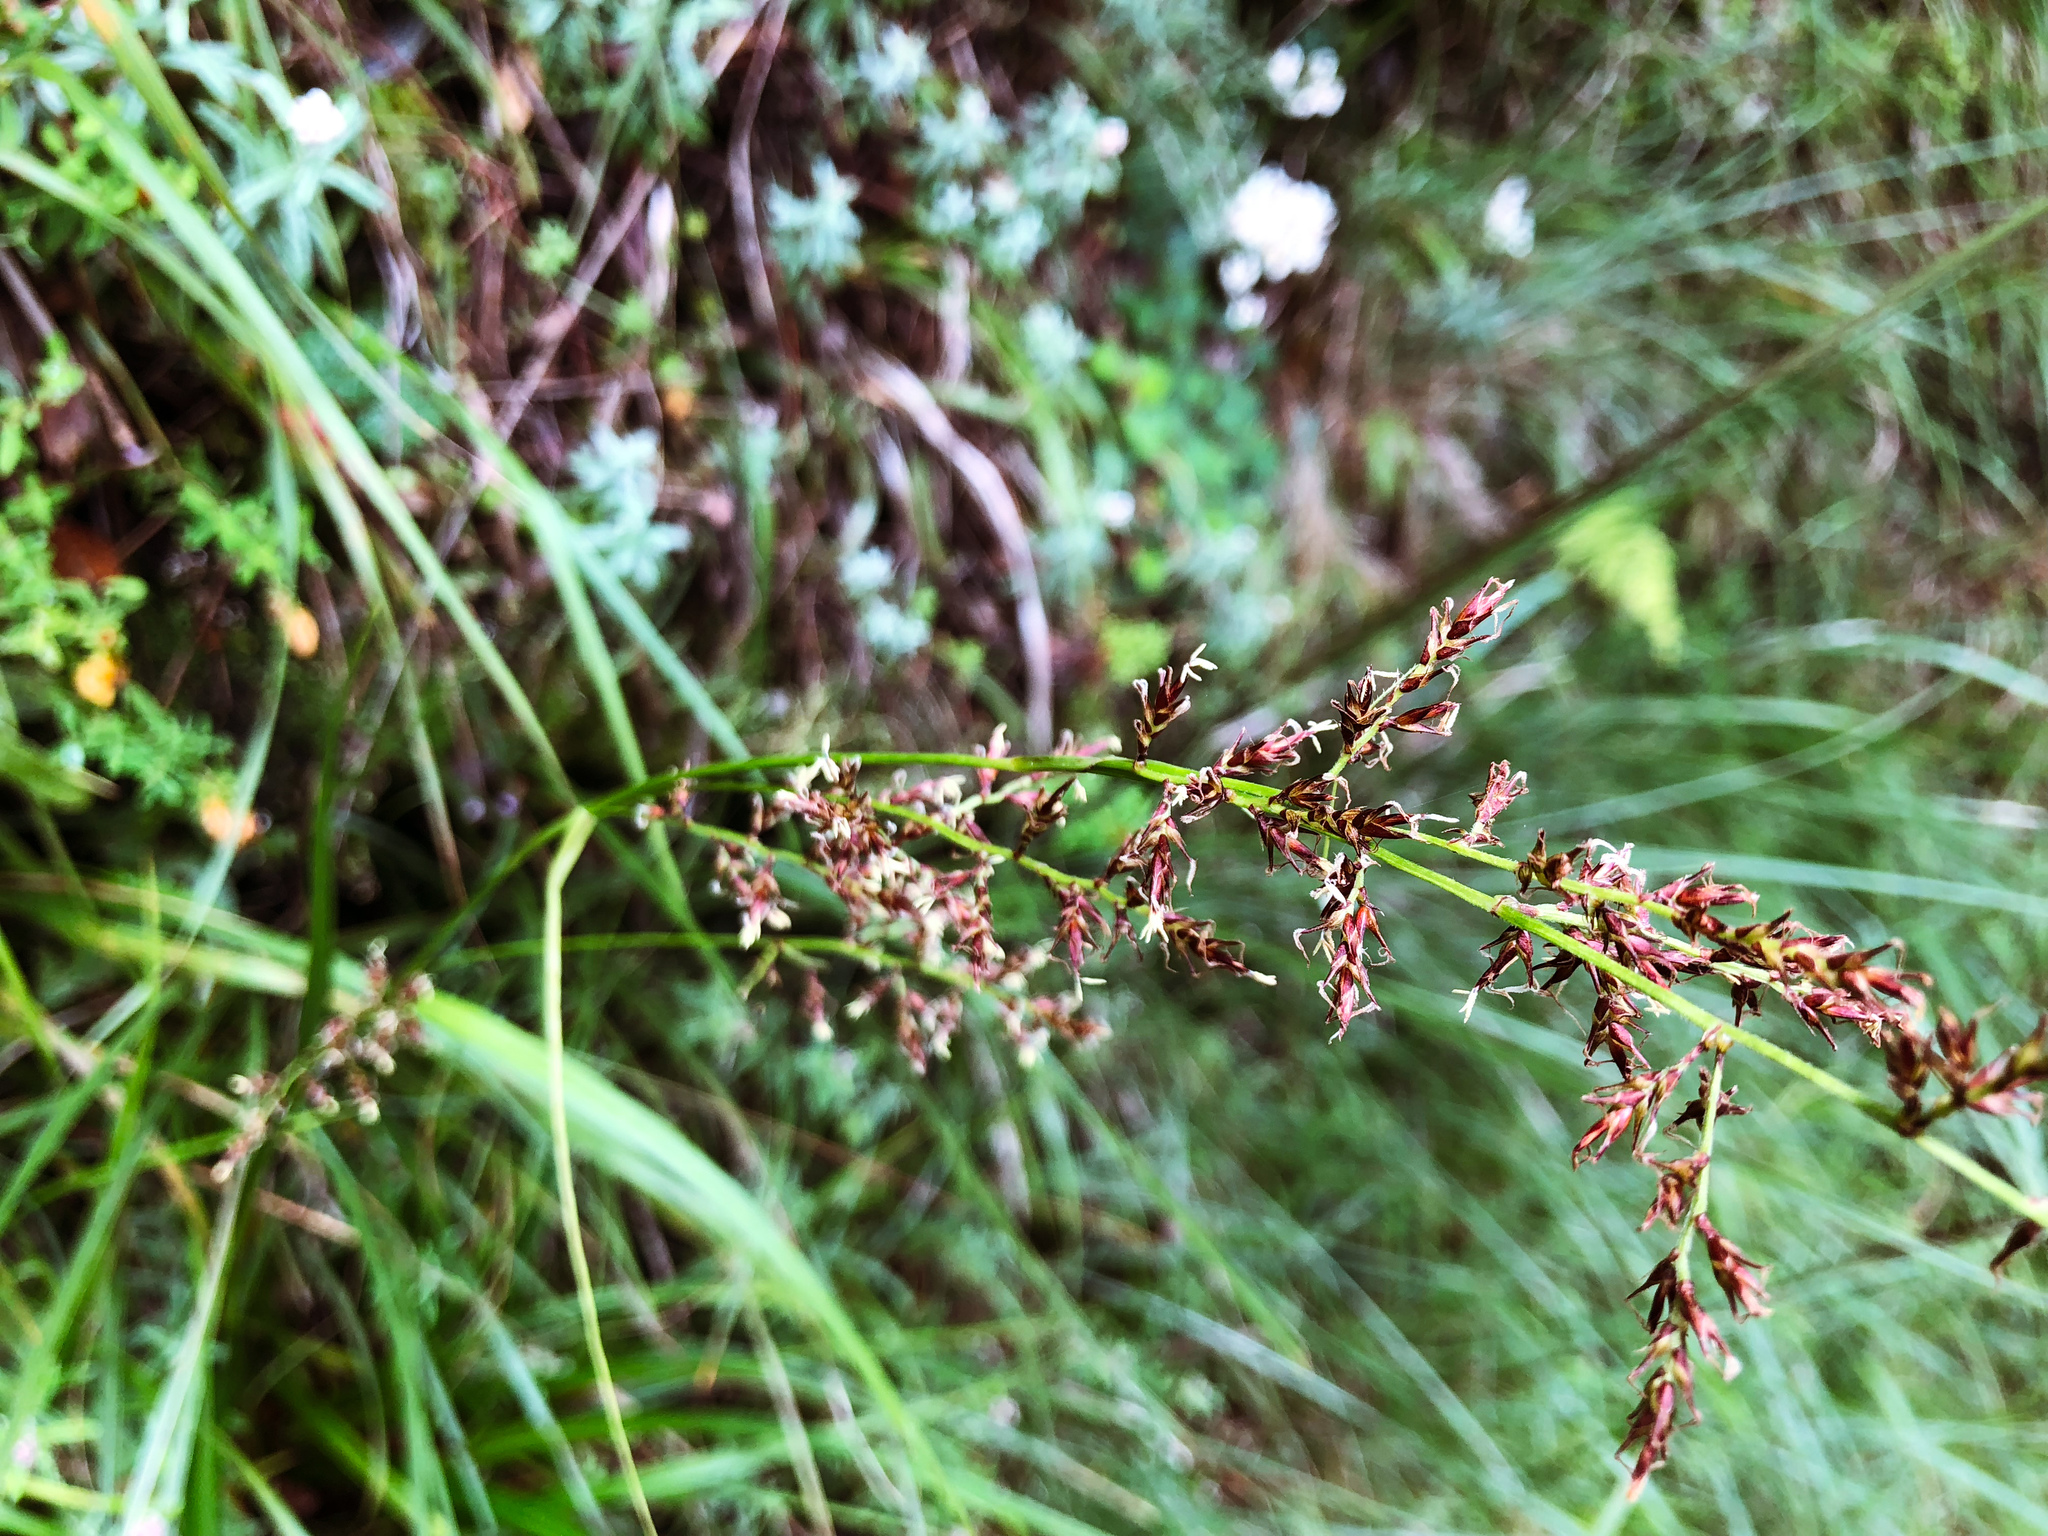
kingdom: Plantae
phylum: Tracheophyta
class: Liliopsida
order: Poales
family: Cyperaceae
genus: Carex
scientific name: Carex filicina
